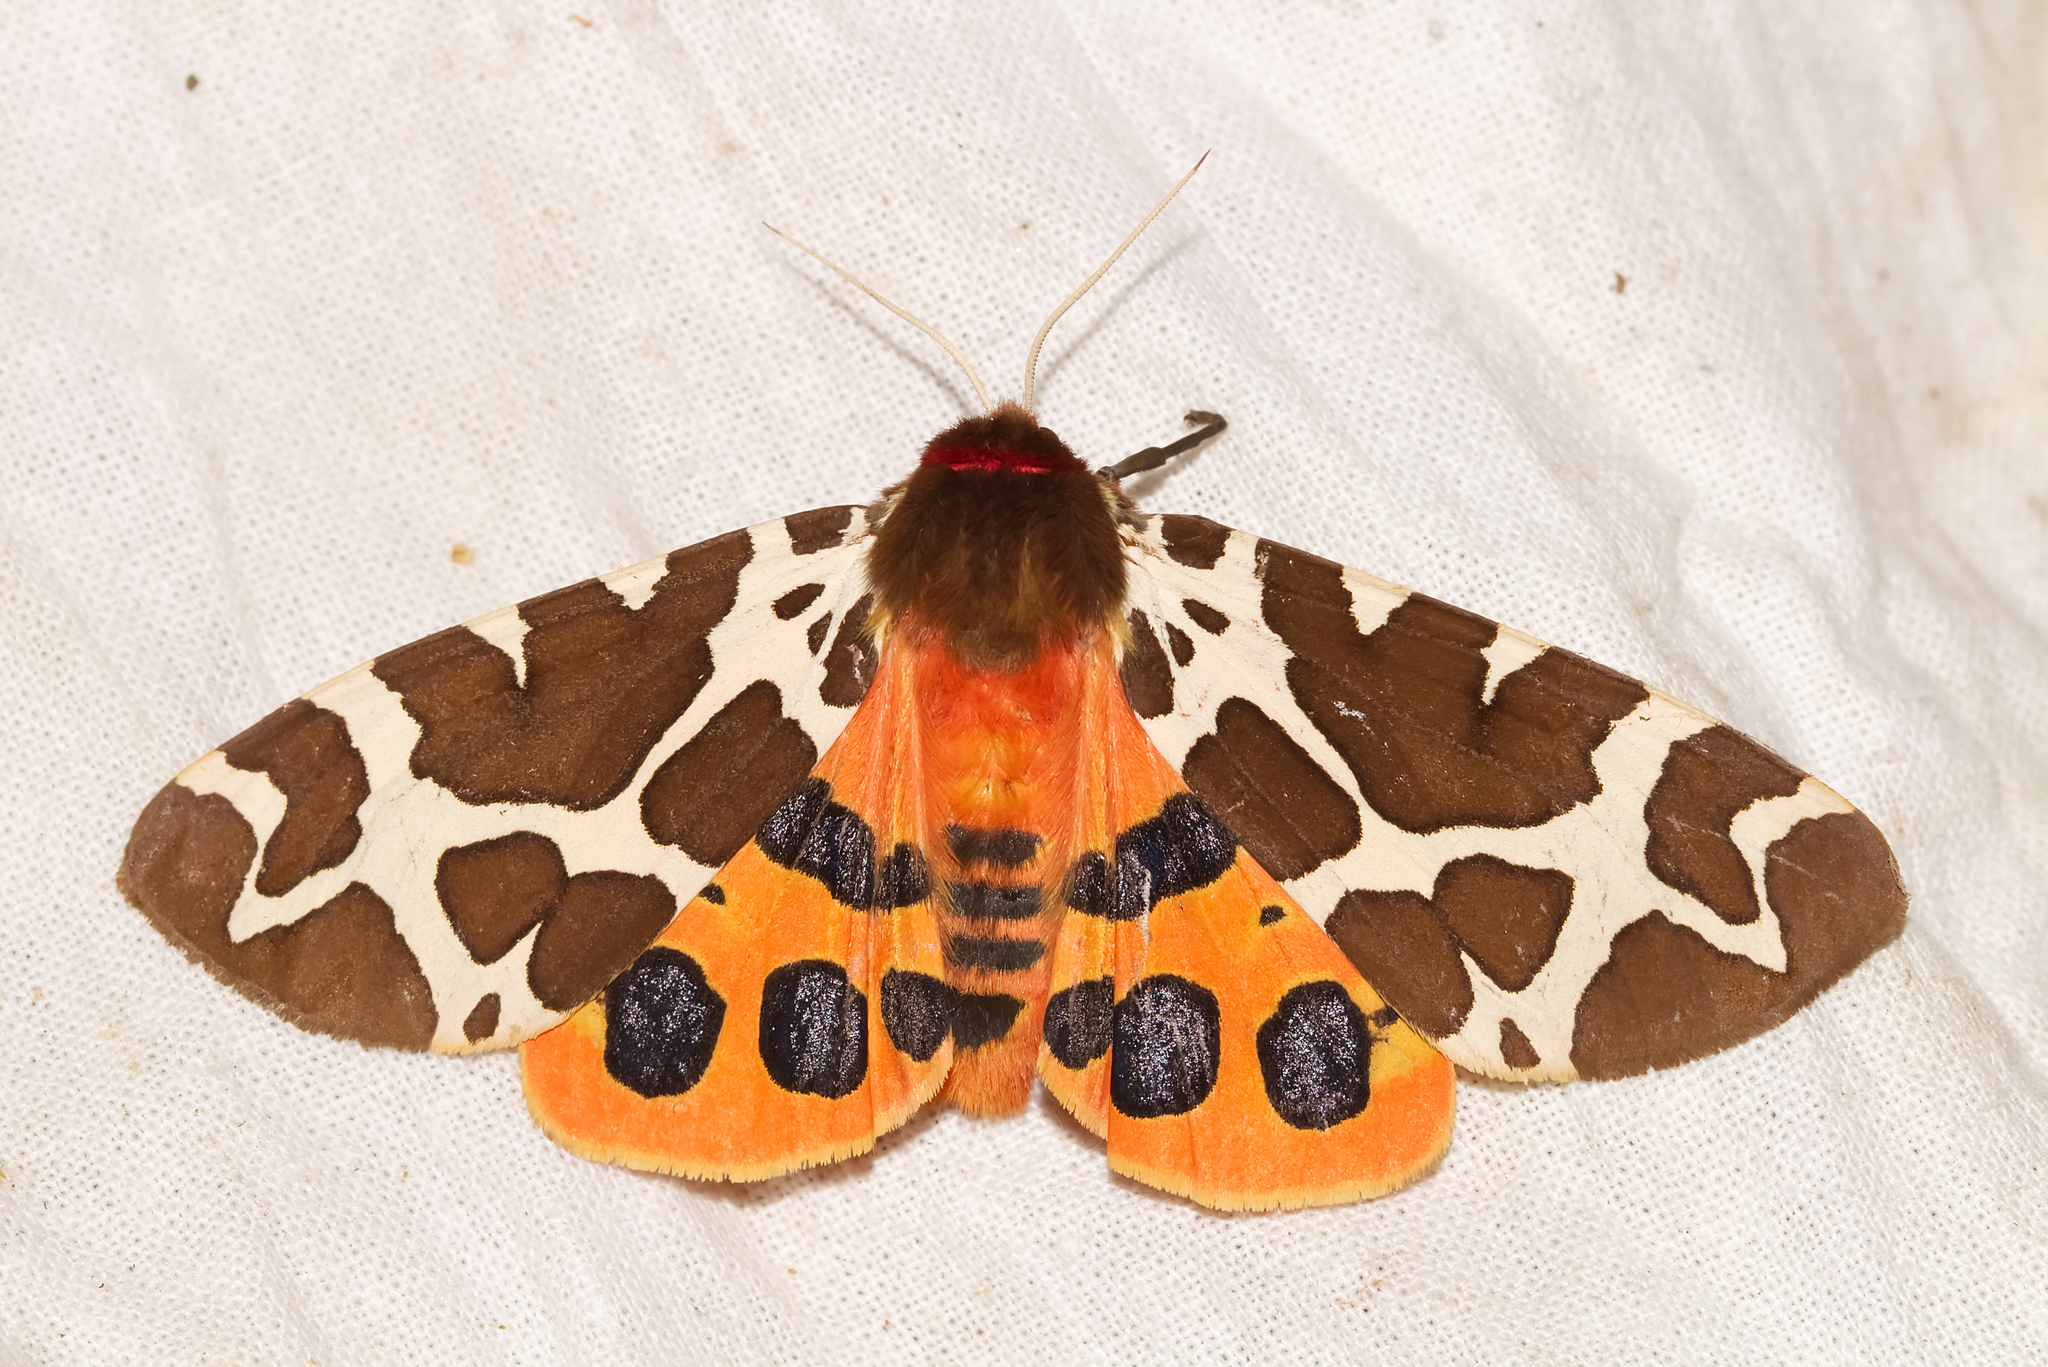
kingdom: Animalia
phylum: Arthropoda
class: Insecta
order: Lepidoptera
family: Erebidae
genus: Arctia
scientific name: Arctia caja
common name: Garden tiger
